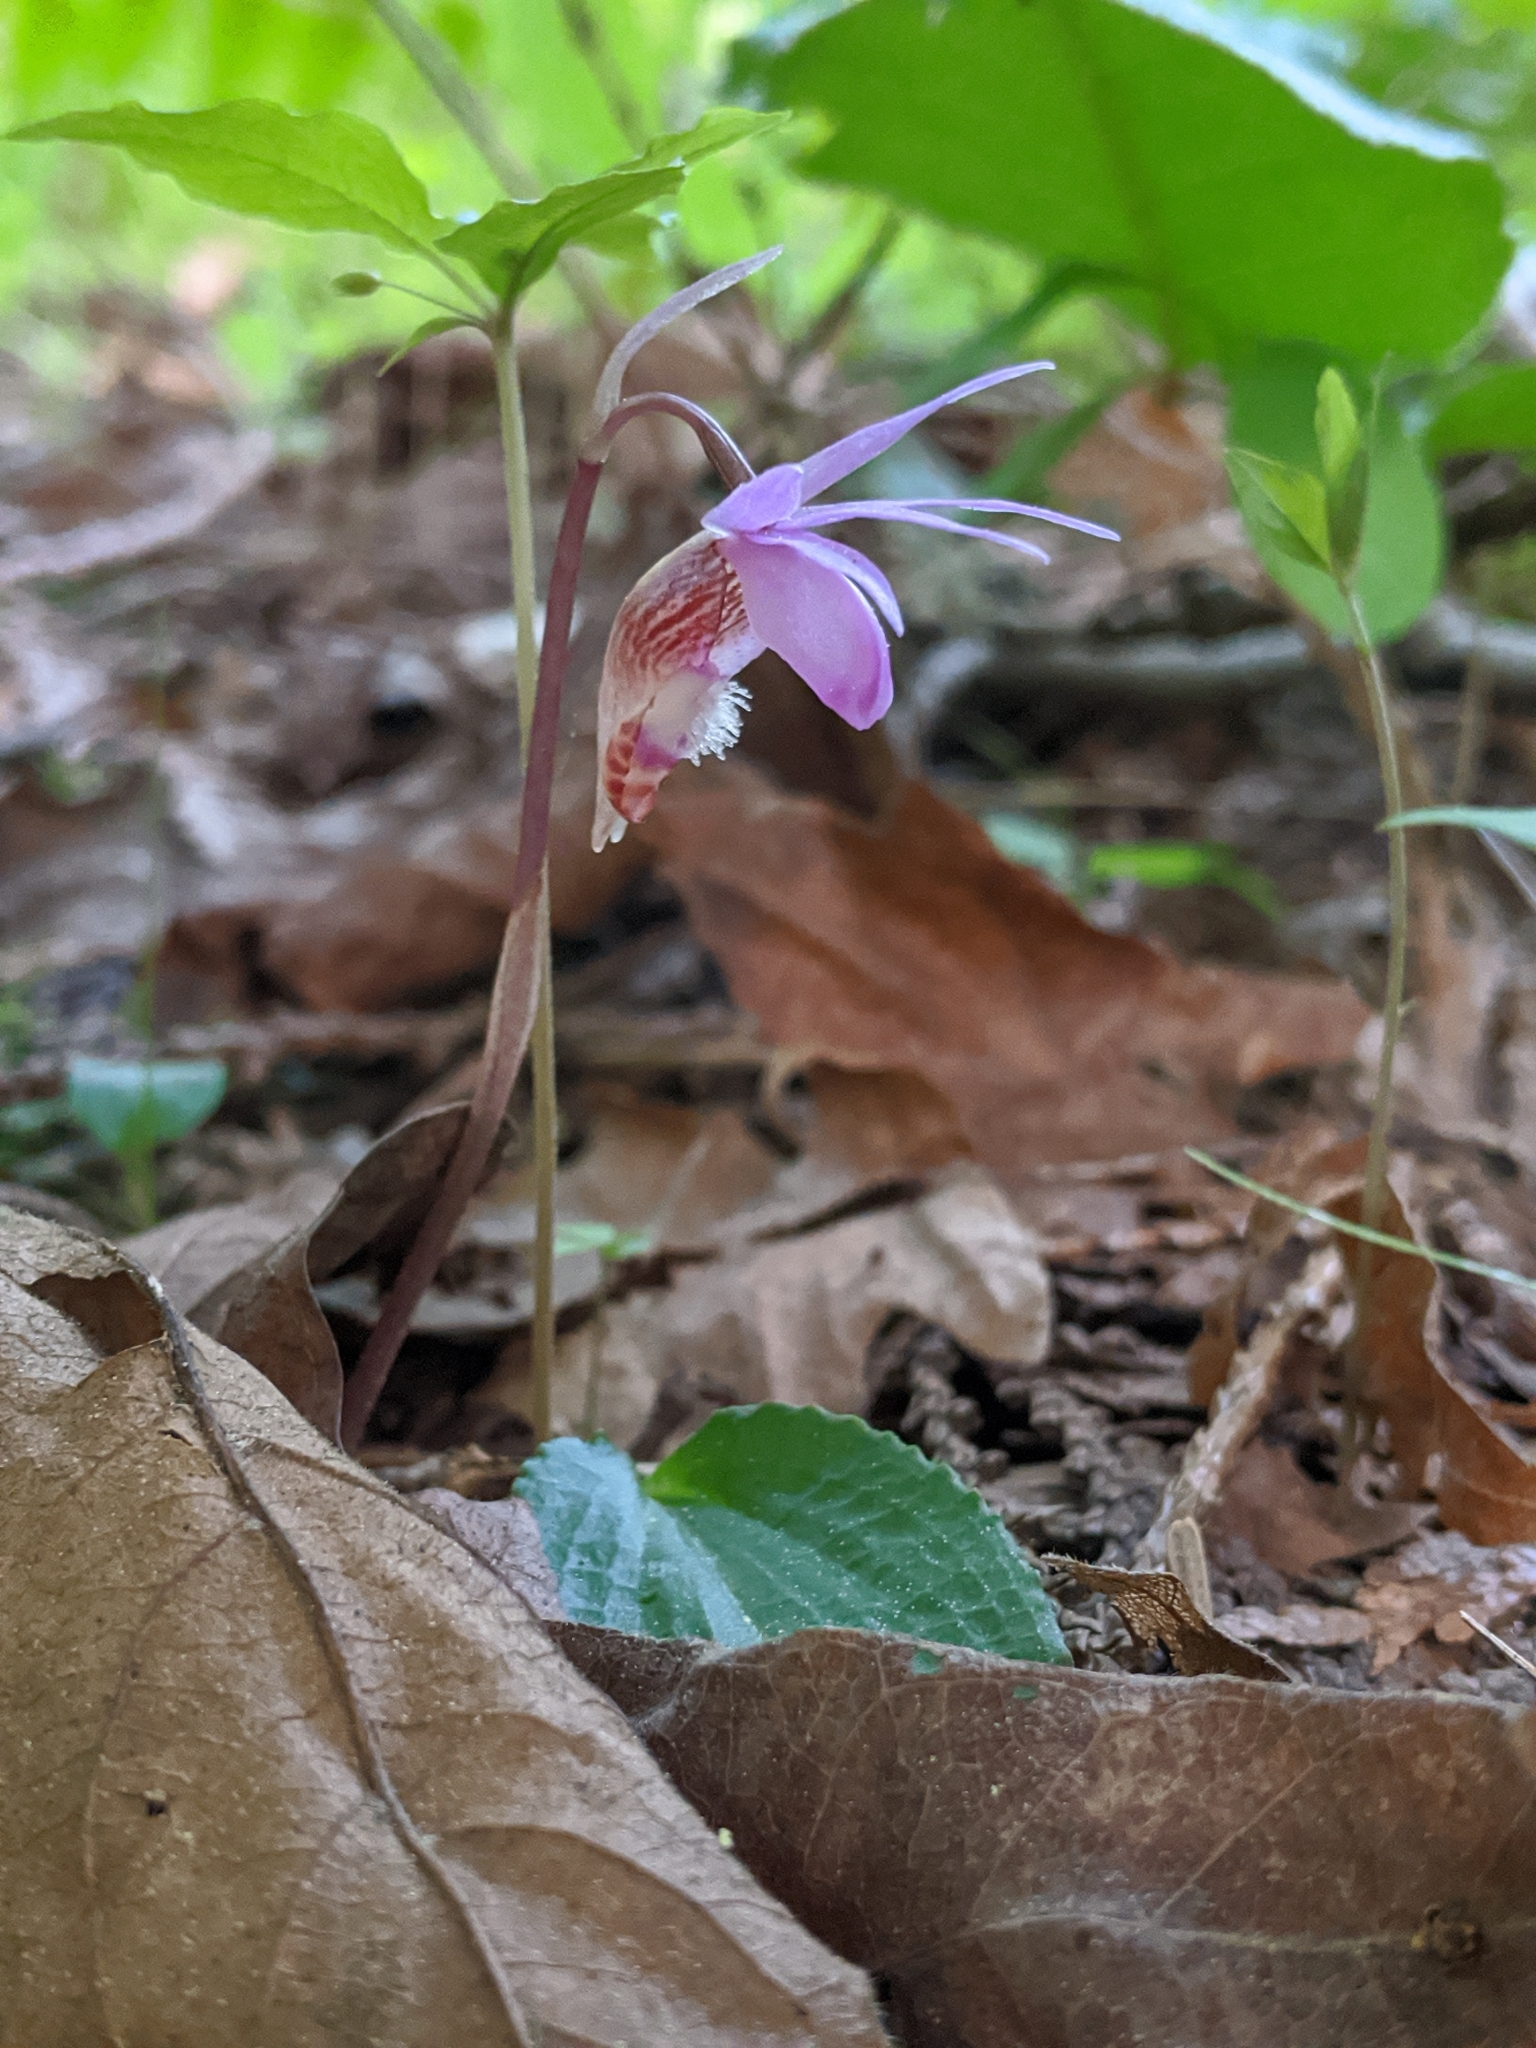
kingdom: Plantae
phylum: Tracheophyta
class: Liliopsida
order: Asparagales
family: Orchidaceae
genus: Calypso
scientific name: Calypso bulbosa
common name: Calypso
